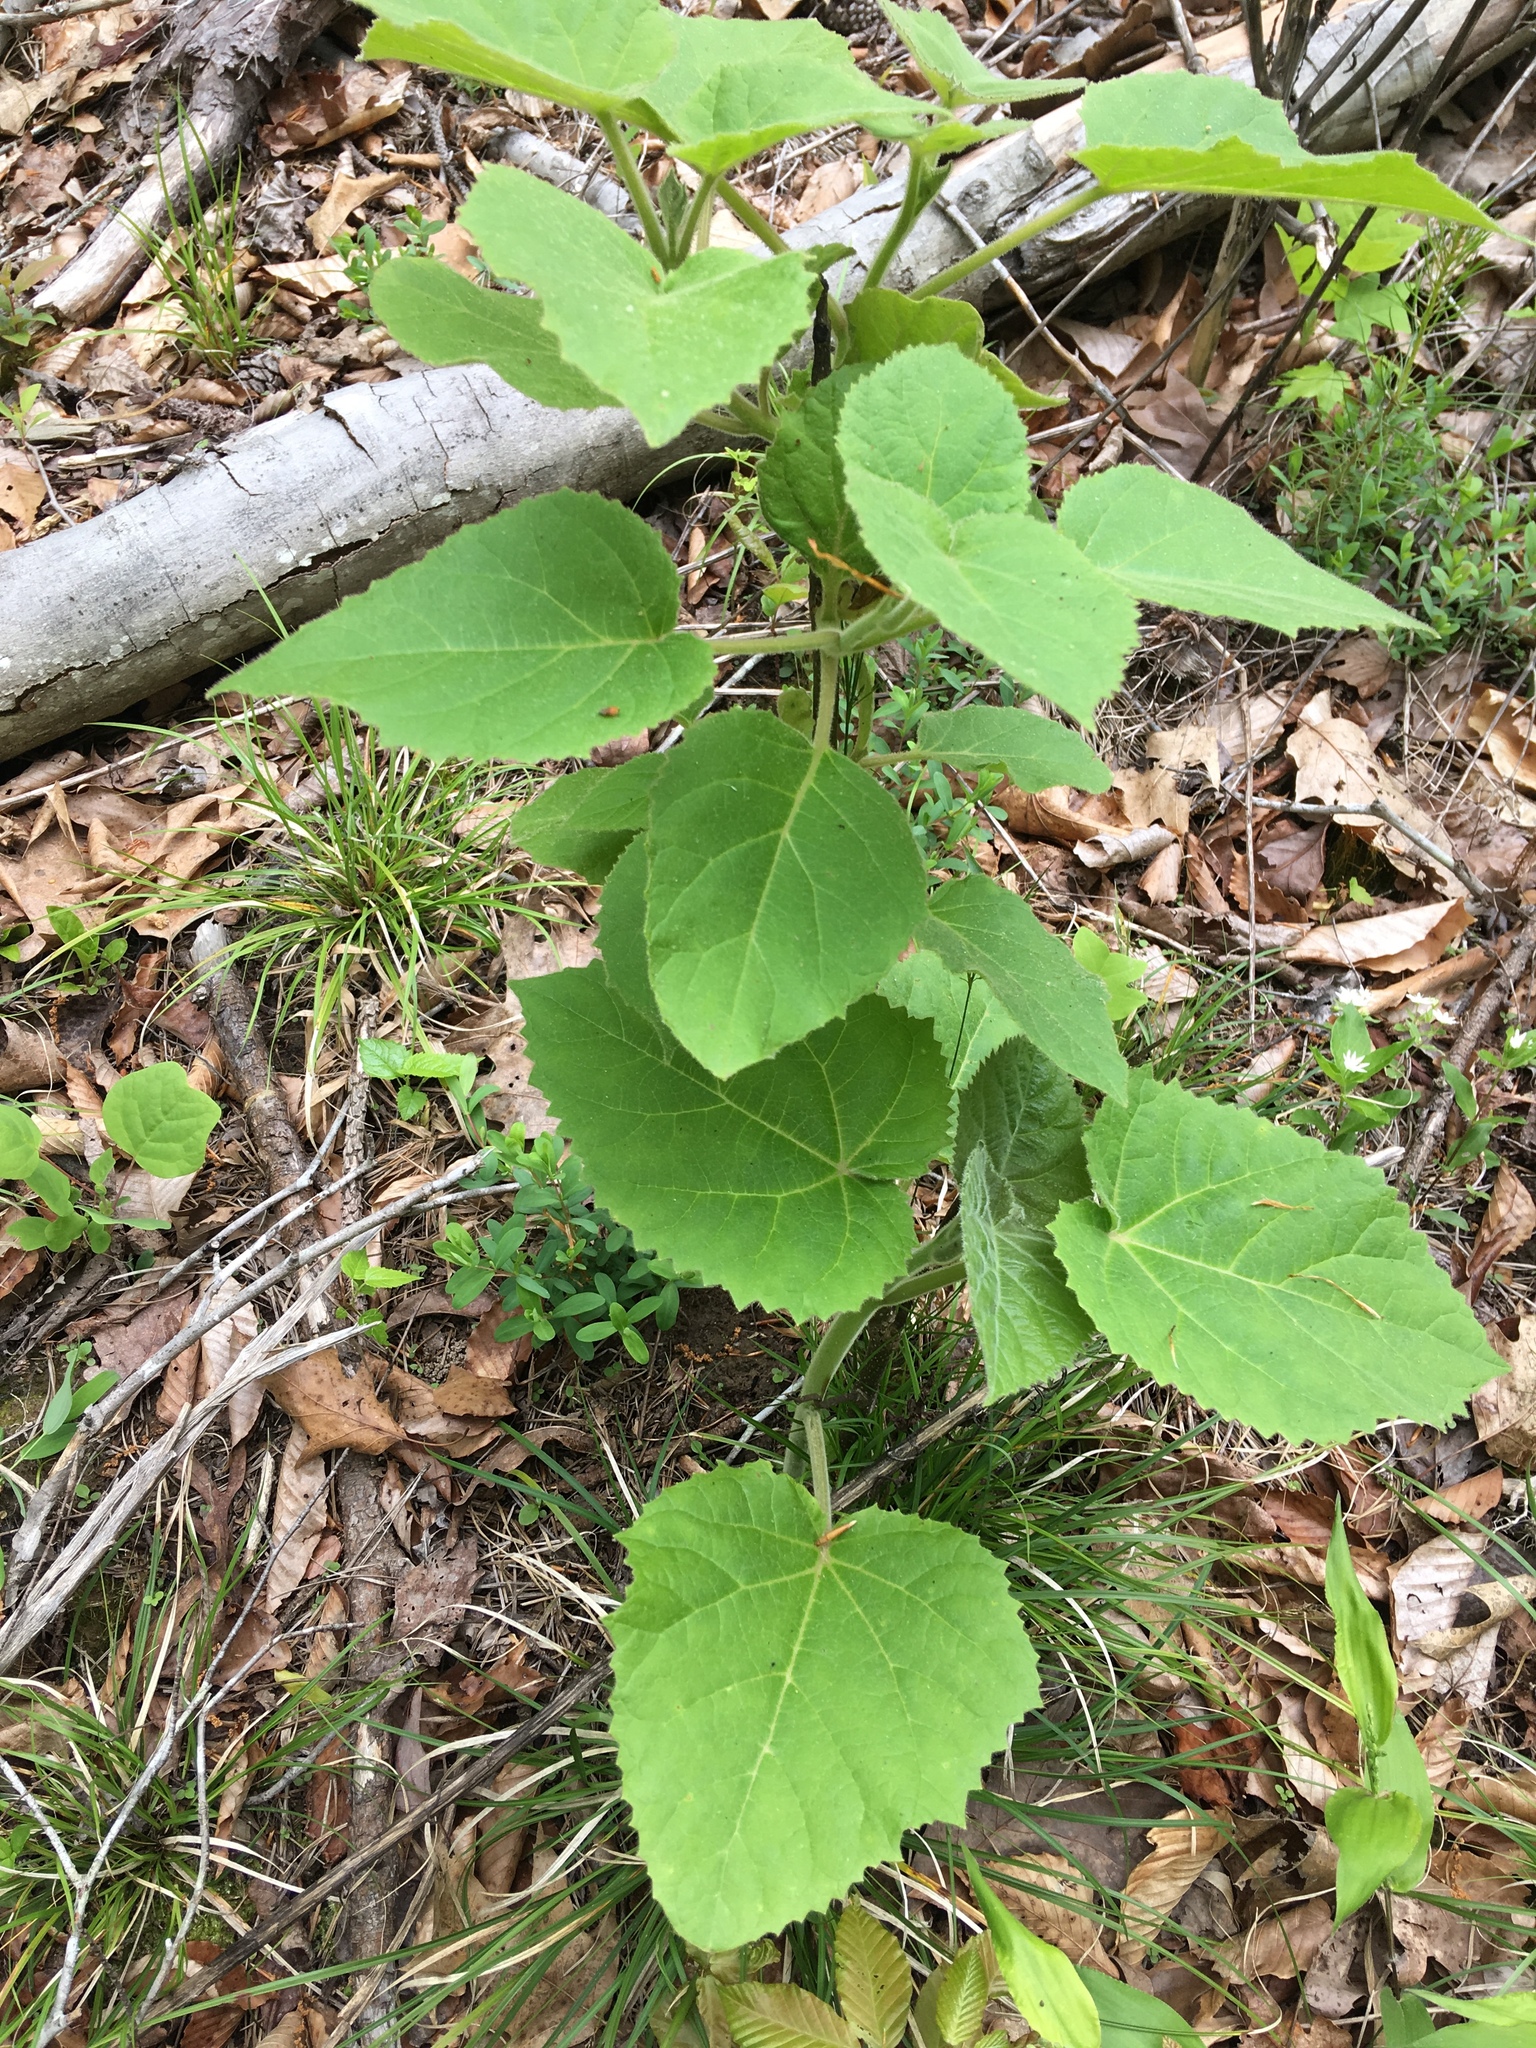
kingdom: Plantae
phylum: Tracheophyta
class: Magnoliopsida
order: Lamiales
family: Paulowniaceae
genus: Paulownia
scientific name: Paulownia tomentosa
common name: Foxglove-tree
